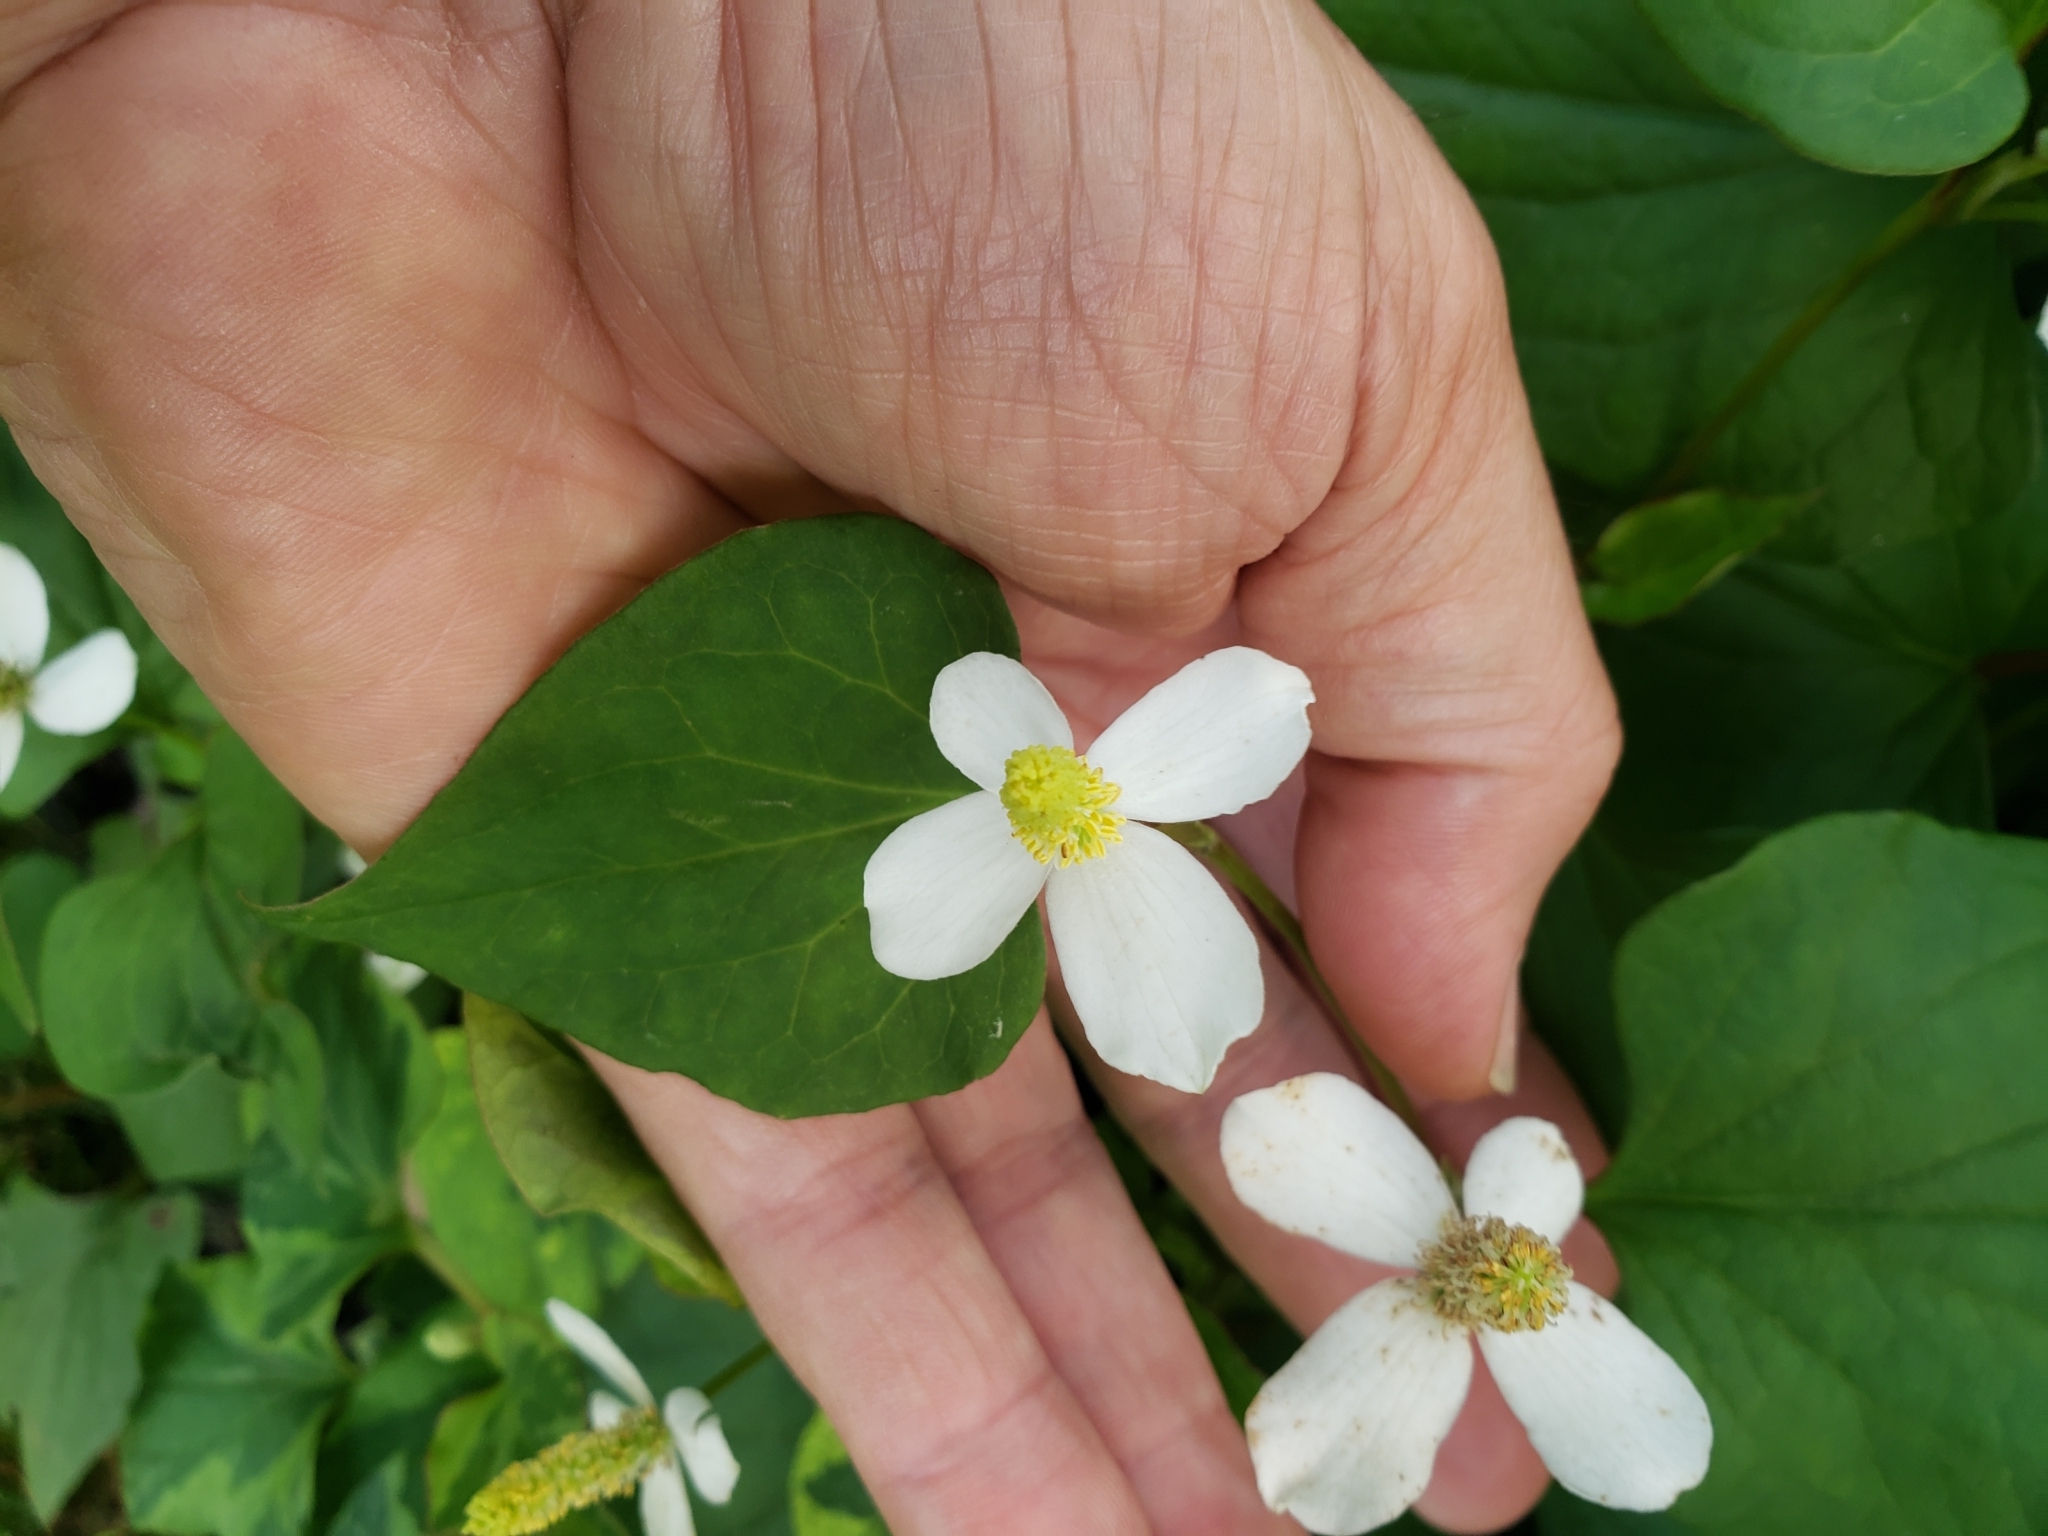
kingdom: Plantae
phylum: Tracheophyta
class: Magnoliopsida
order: Piperales
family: Saururaceae
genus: Houttuynia
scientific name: Houttuynia cordata
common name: Chameleon
